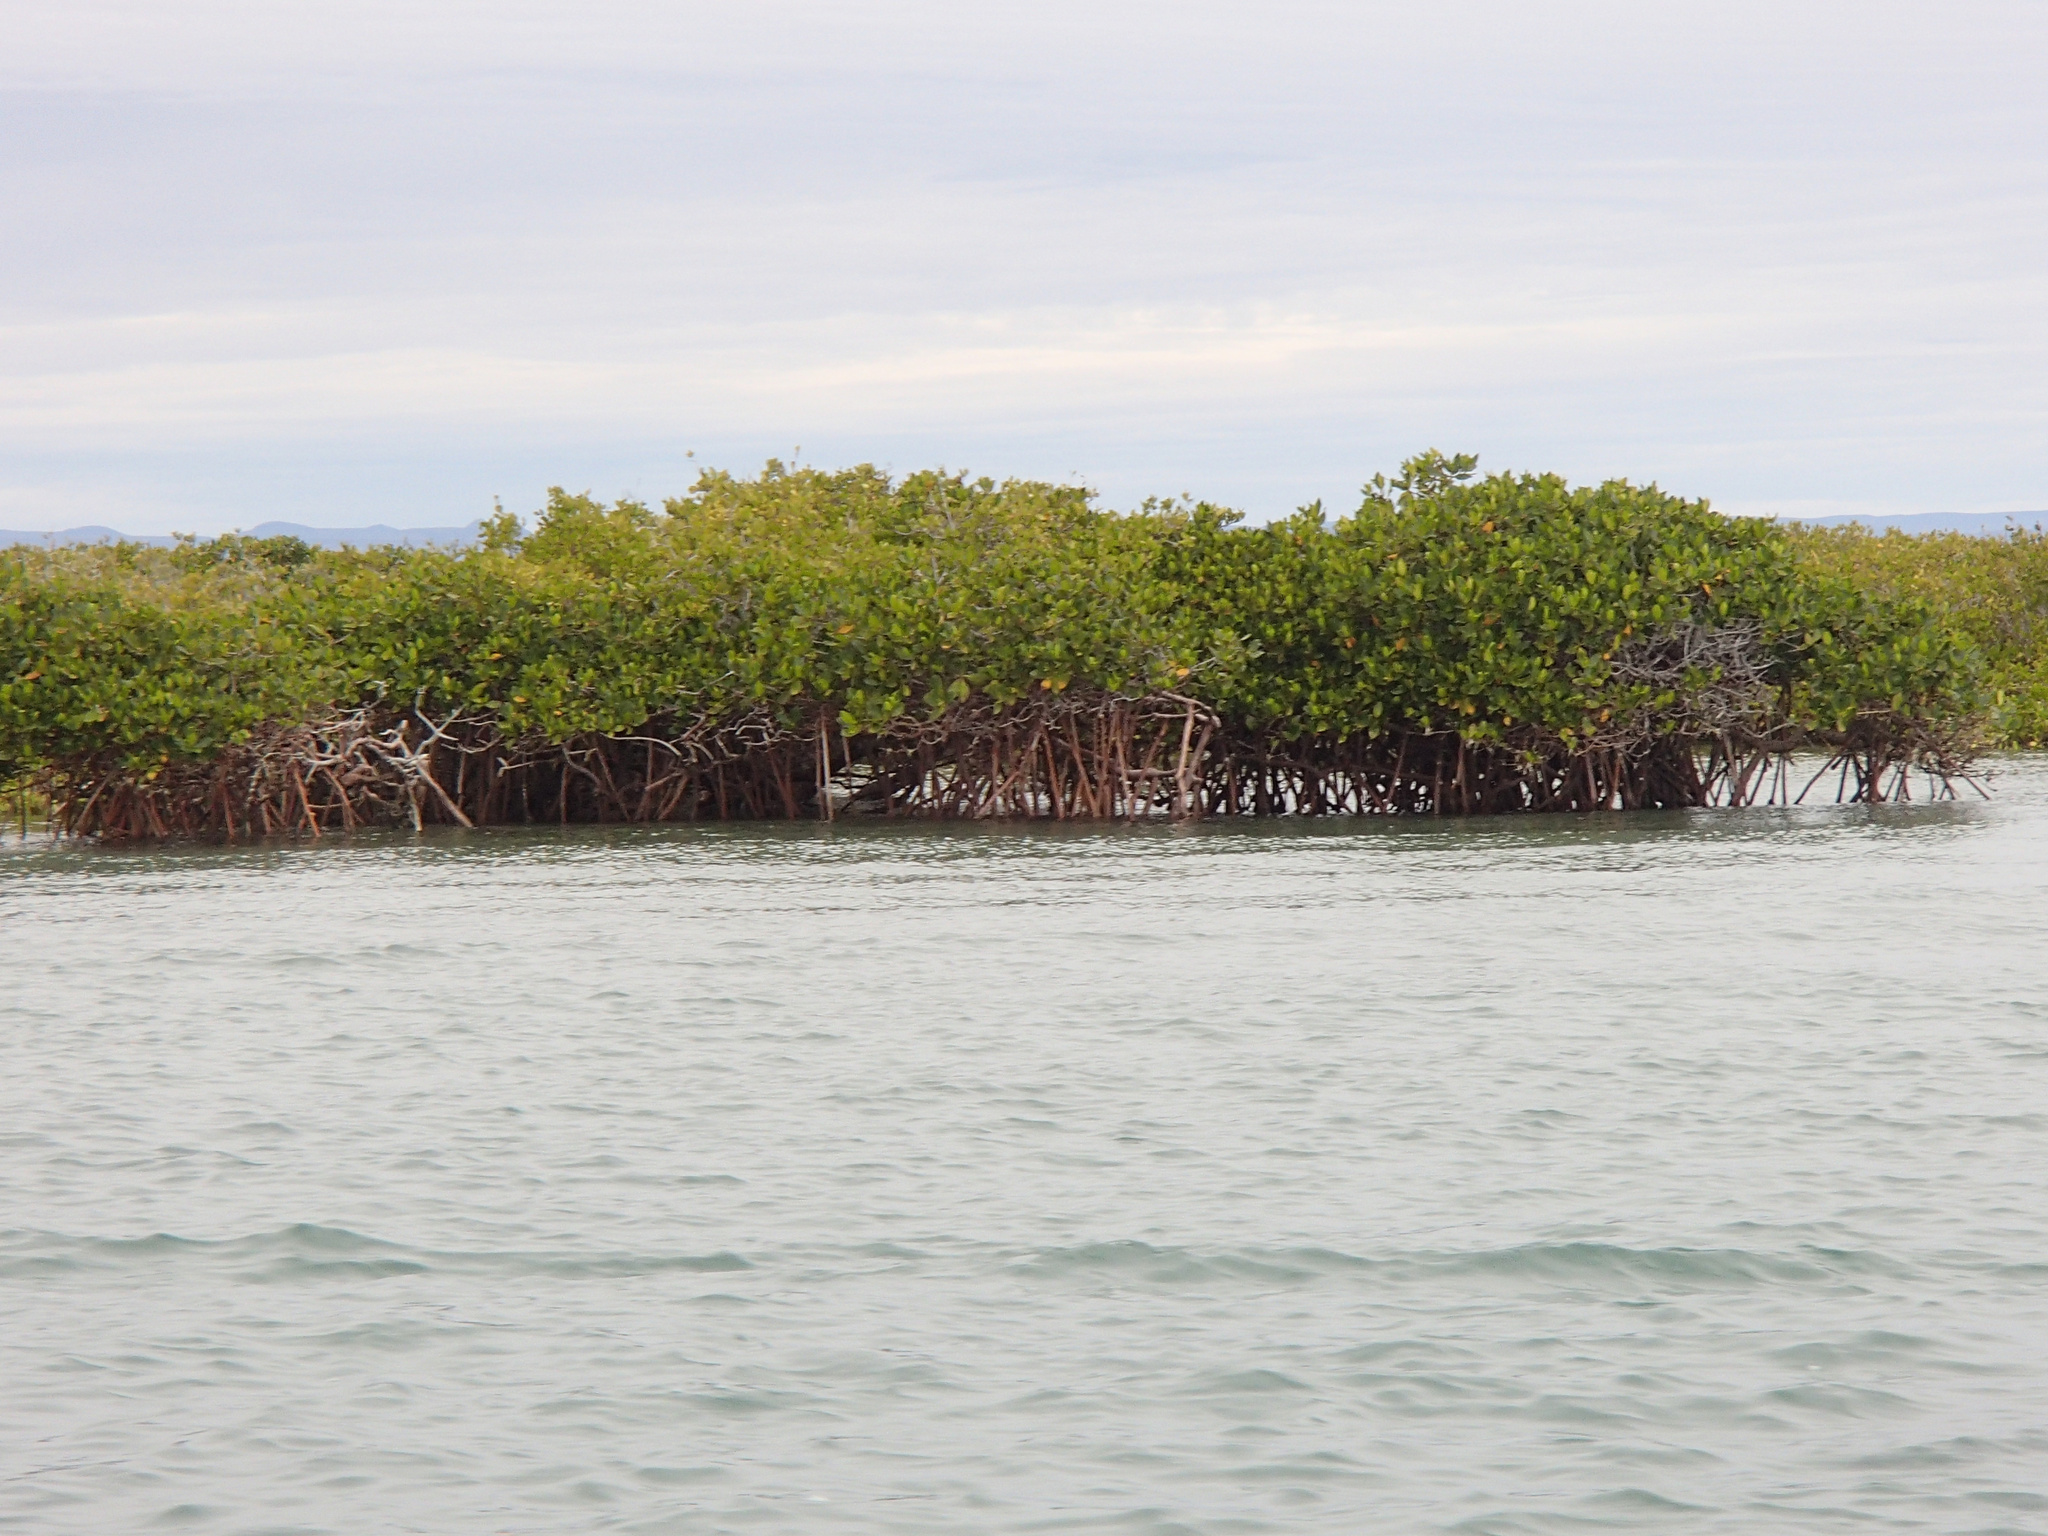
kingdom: Plantae
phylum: Tracheophyta
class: Magnoliopsida
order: Malpighiales
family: Rhizophoraceae
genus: Rhizophora
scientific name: Rhizophora mangle
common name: Red mangrove
